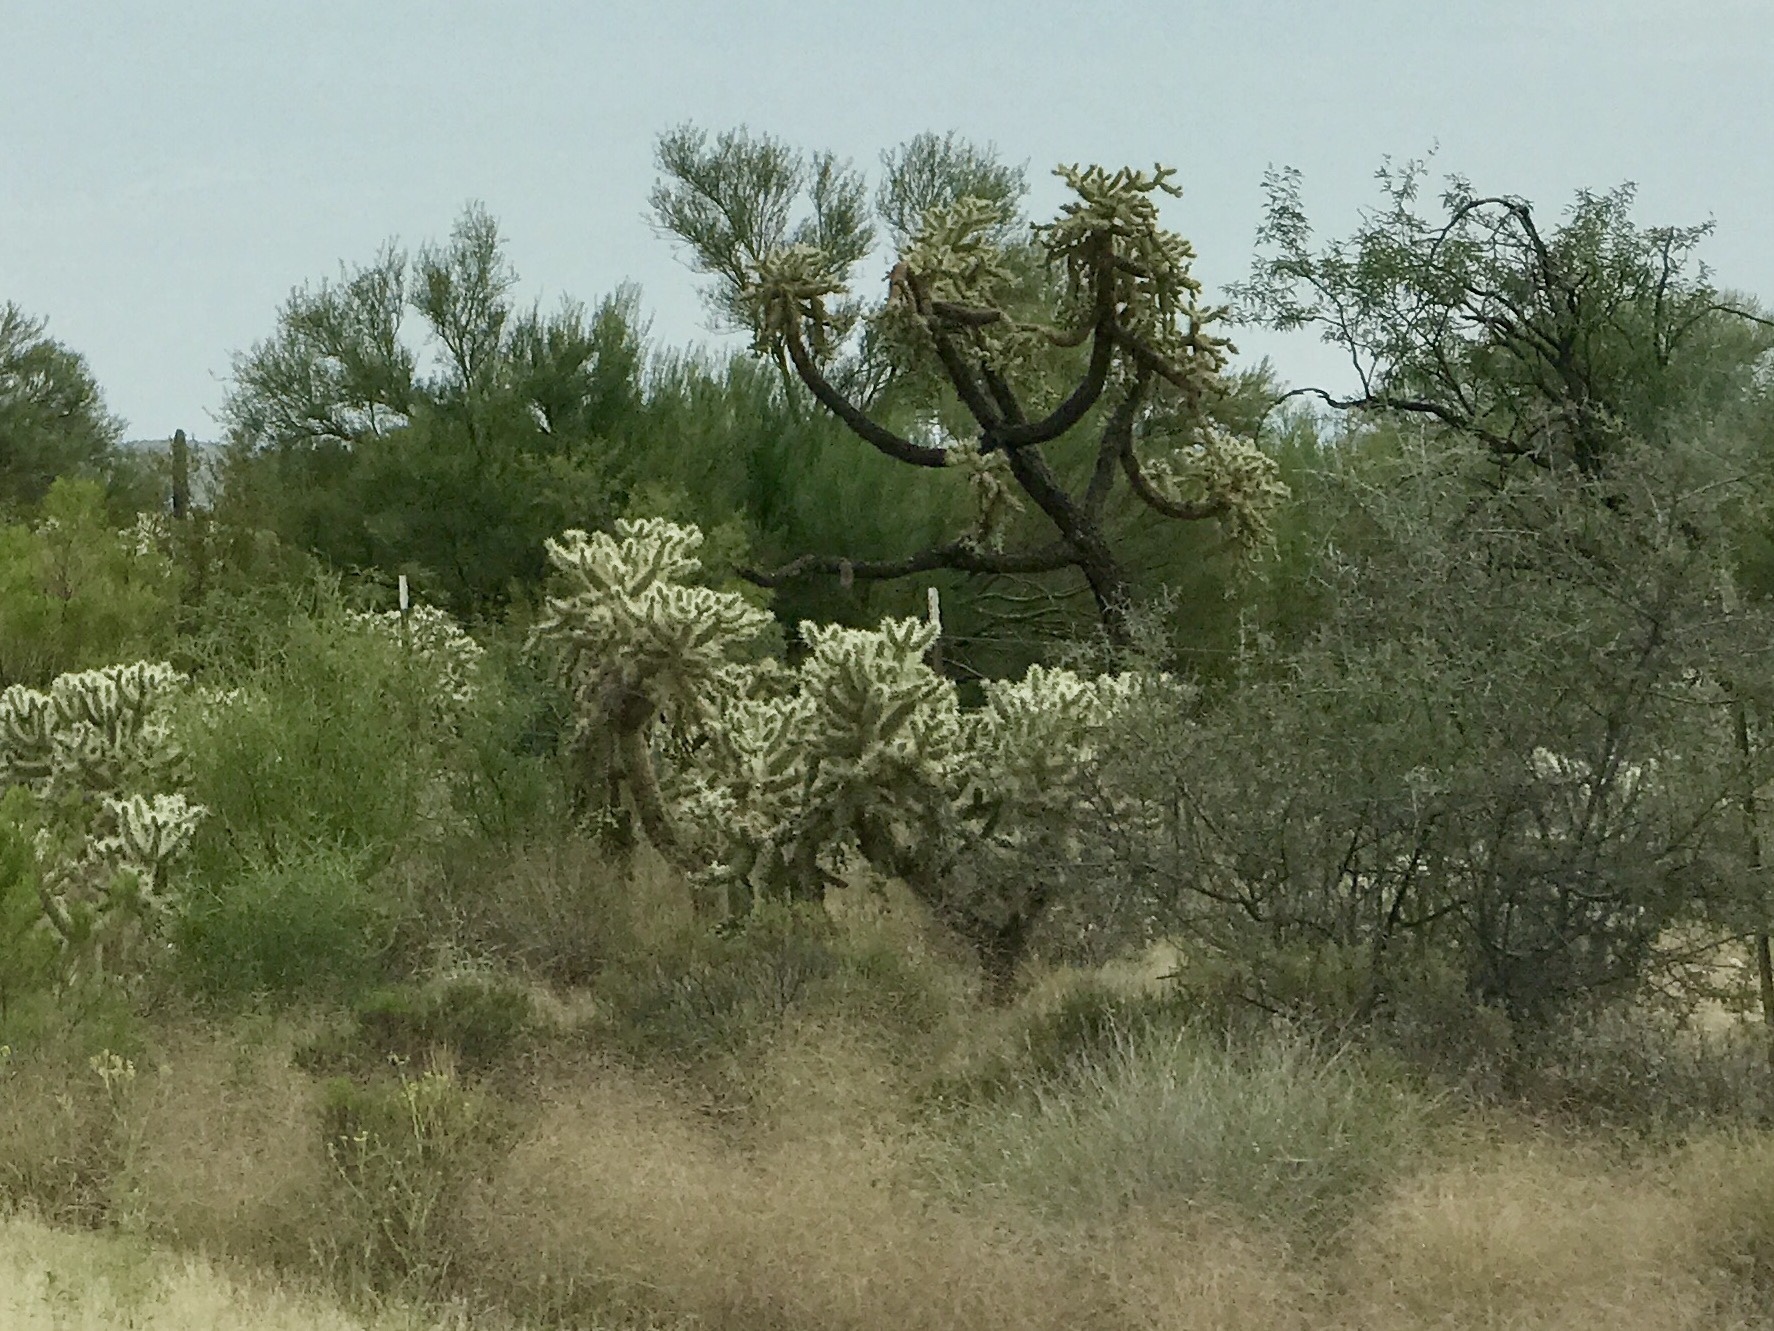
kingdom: Plantae
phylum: Tracheophyta
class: Magnoliopsida
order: Caryophyllales
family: Cactaceae
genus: Cylindropuntia
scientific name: Cylindropuntia fulgida
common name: Jumping cholla
